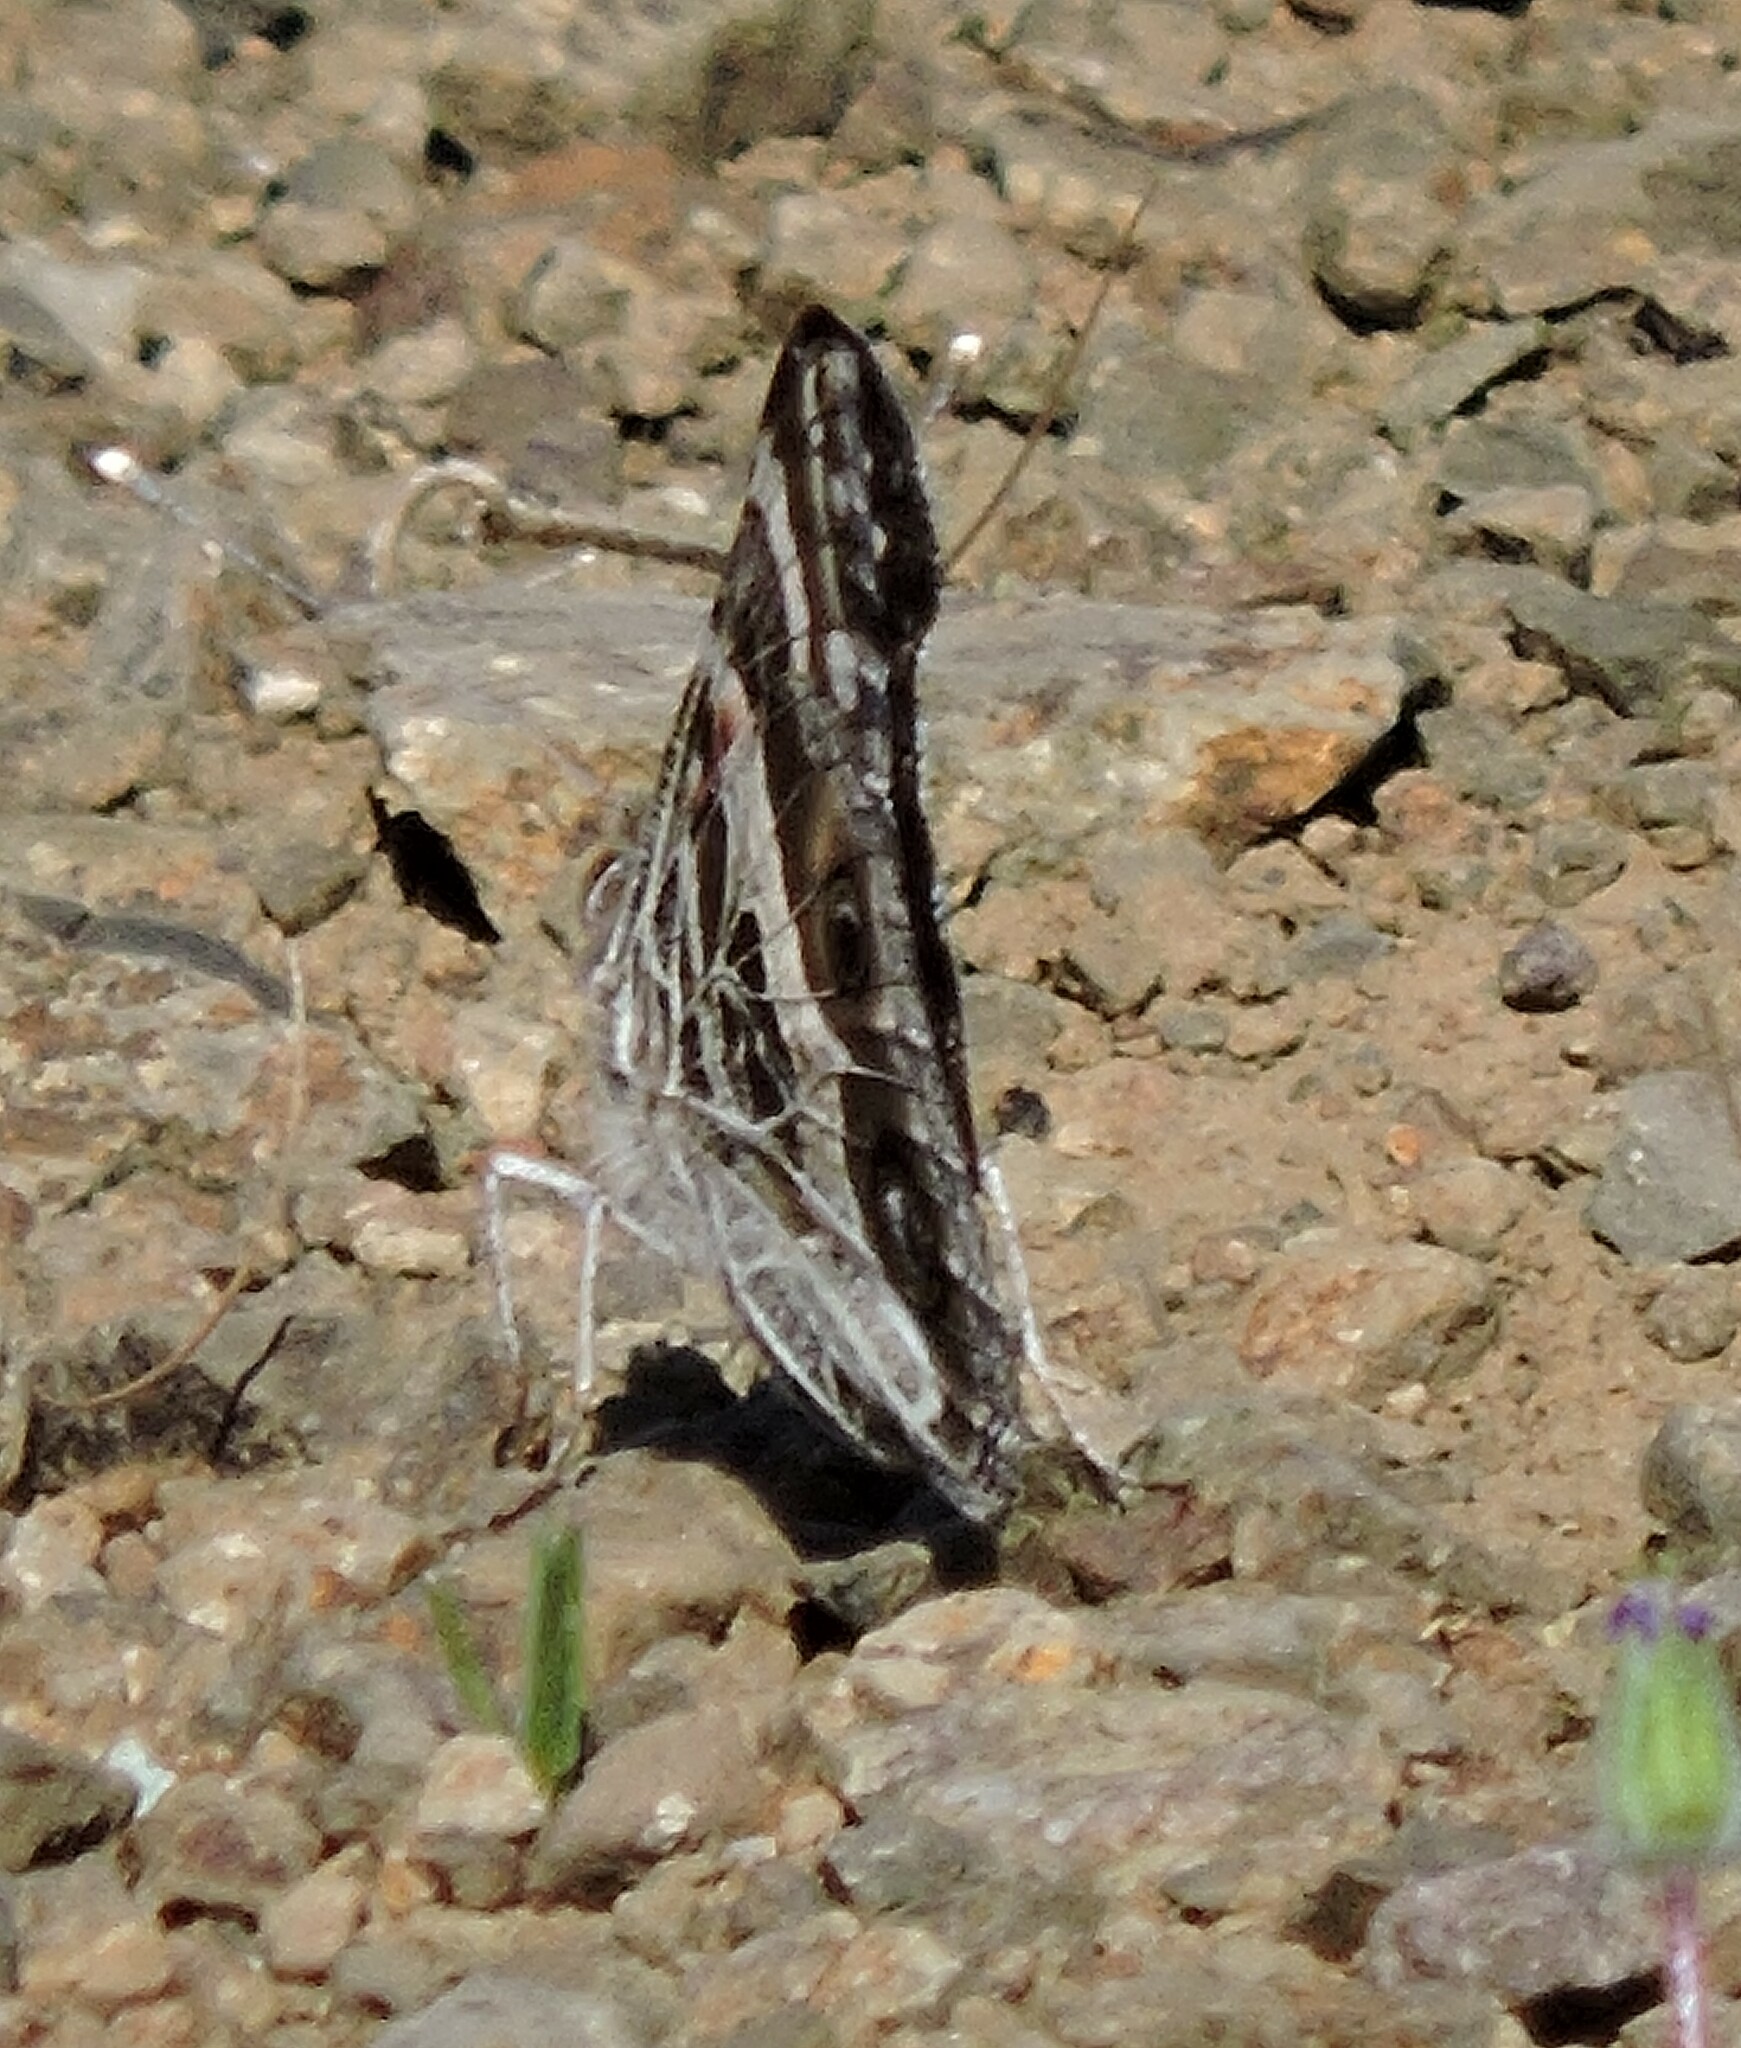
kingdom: Animalia
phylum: Arthropoda
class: Insecta
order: Lepidoptera
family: Nymphalidae
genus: Vanessa
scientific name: Vanessa virginiensis
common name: American lady
